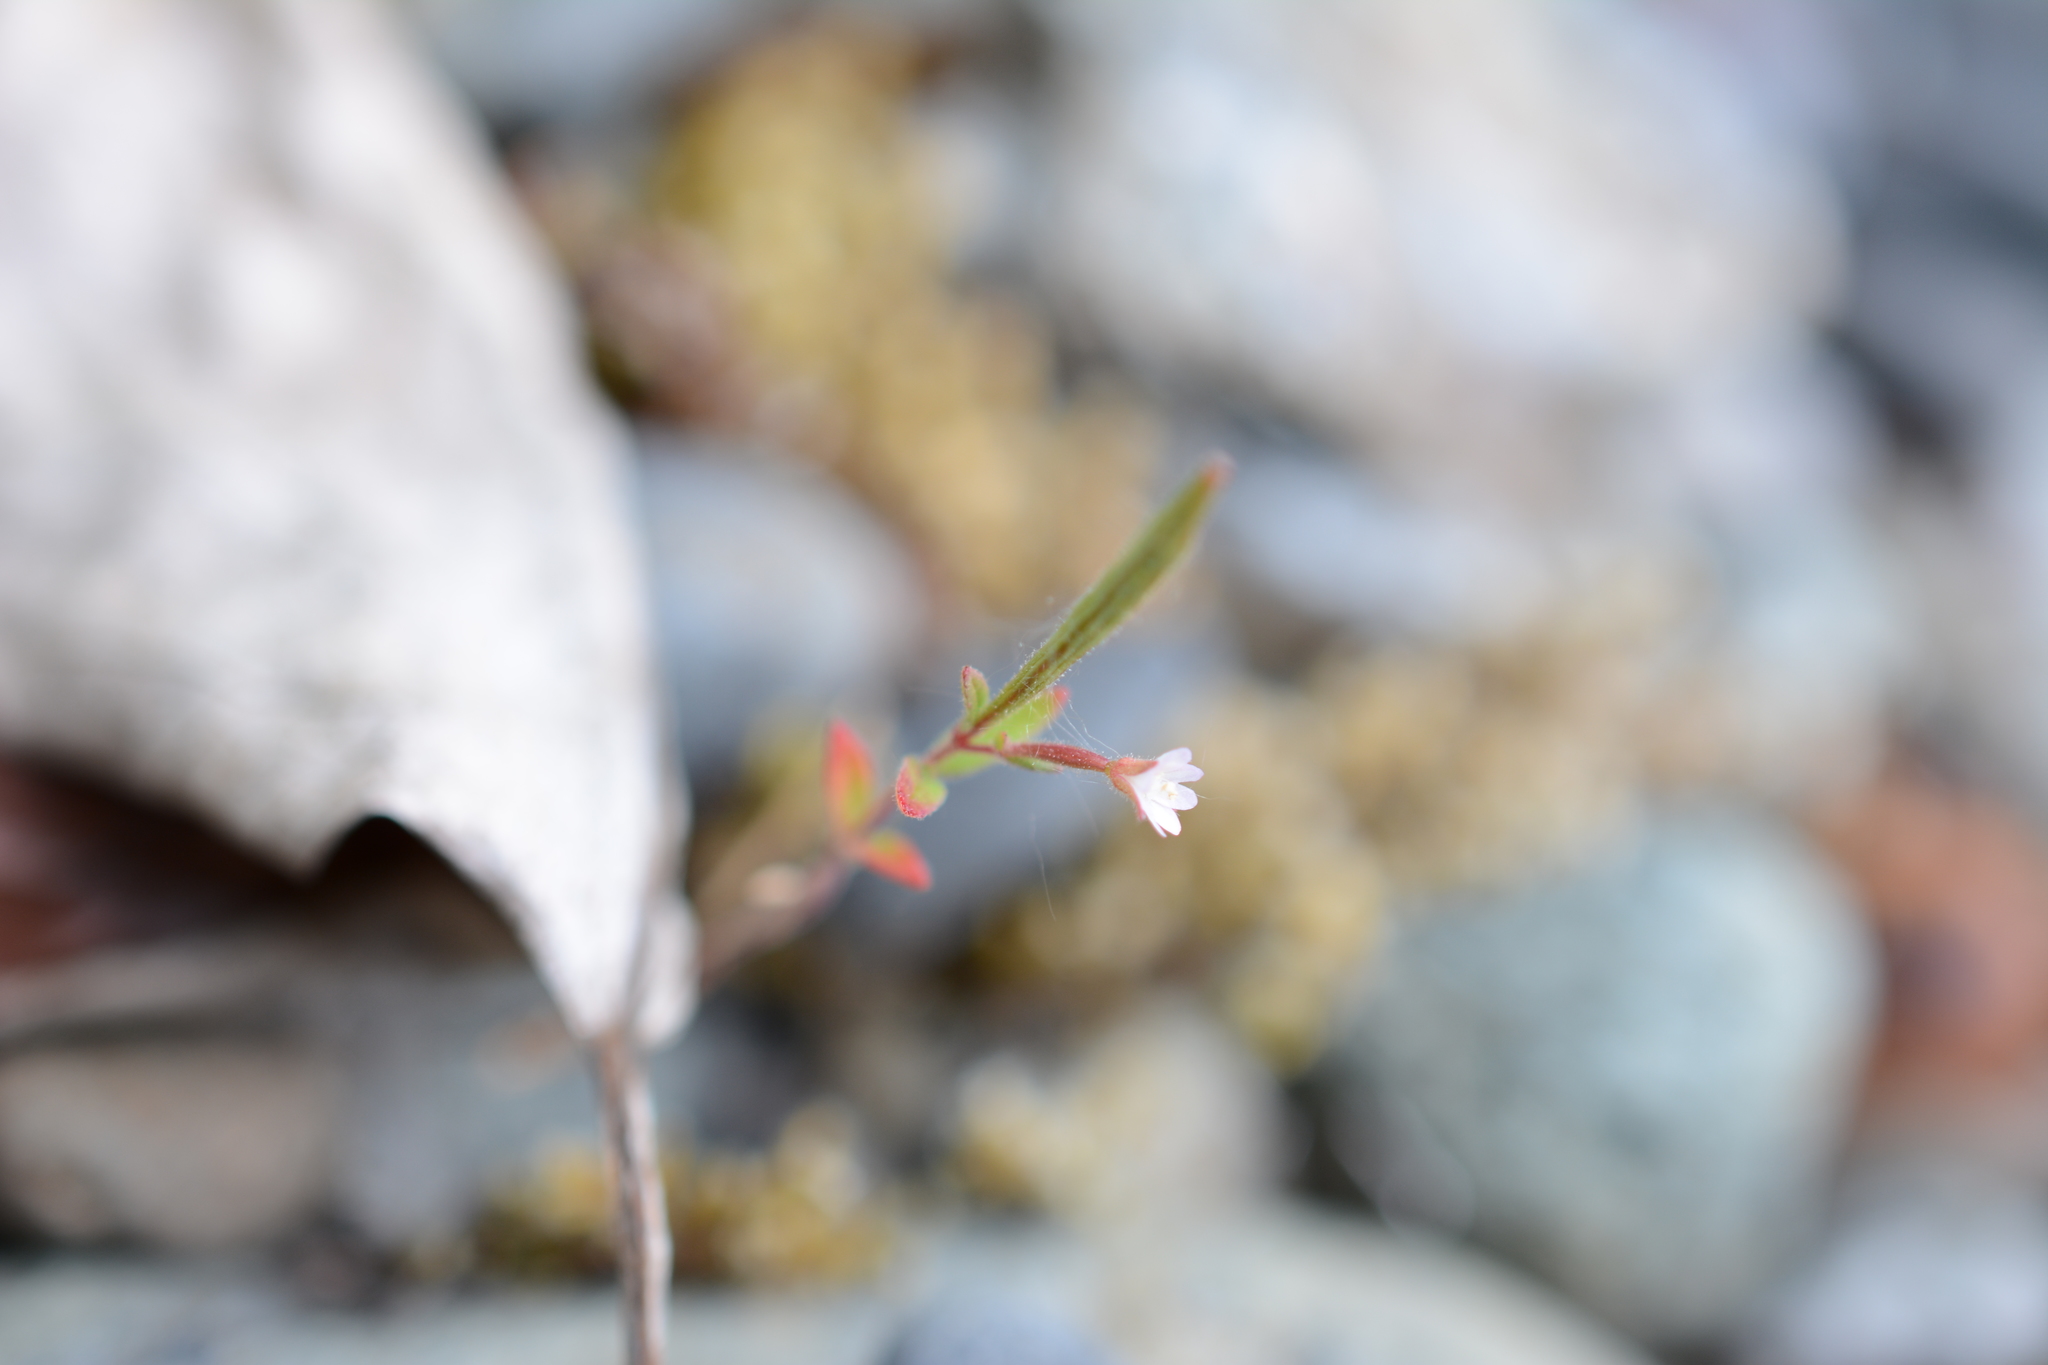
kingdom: Plantae
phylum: Tracheophyta
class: Magnoliopsida
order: Myrtales
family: Onagraceae
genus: Epilobium
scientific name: Epilobium minutum
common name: Chaparral willowherb
